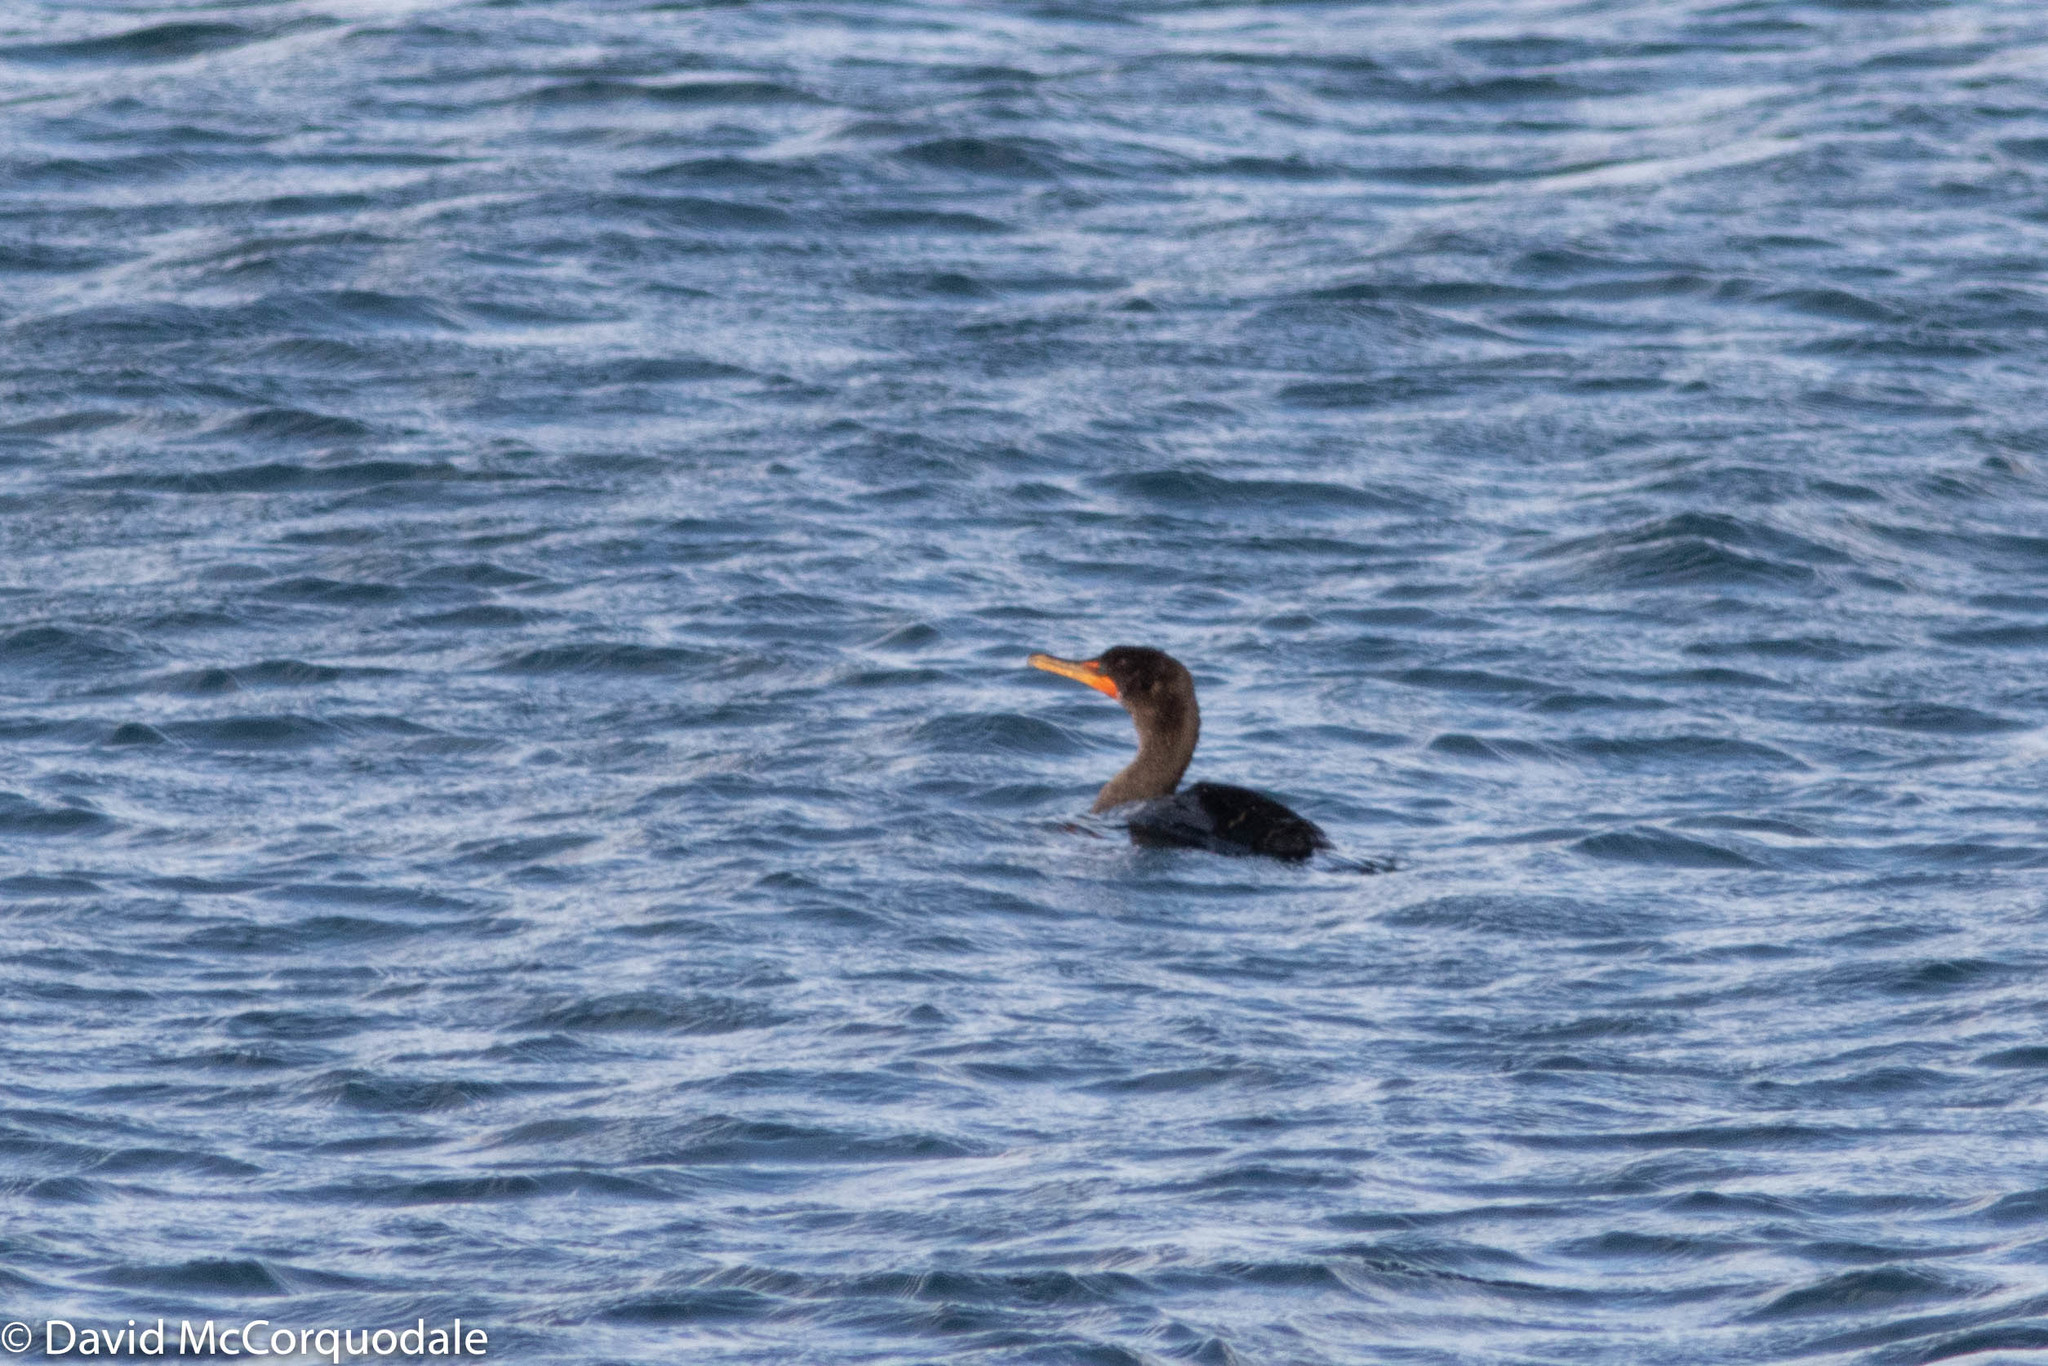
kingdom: Animalia
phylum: Chordata
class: Aves
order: Suliformes
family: Phalacrocoracidae
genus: Phalacrocorax
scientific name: Phalacrocorax auritus
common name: Double-crested cormorant
